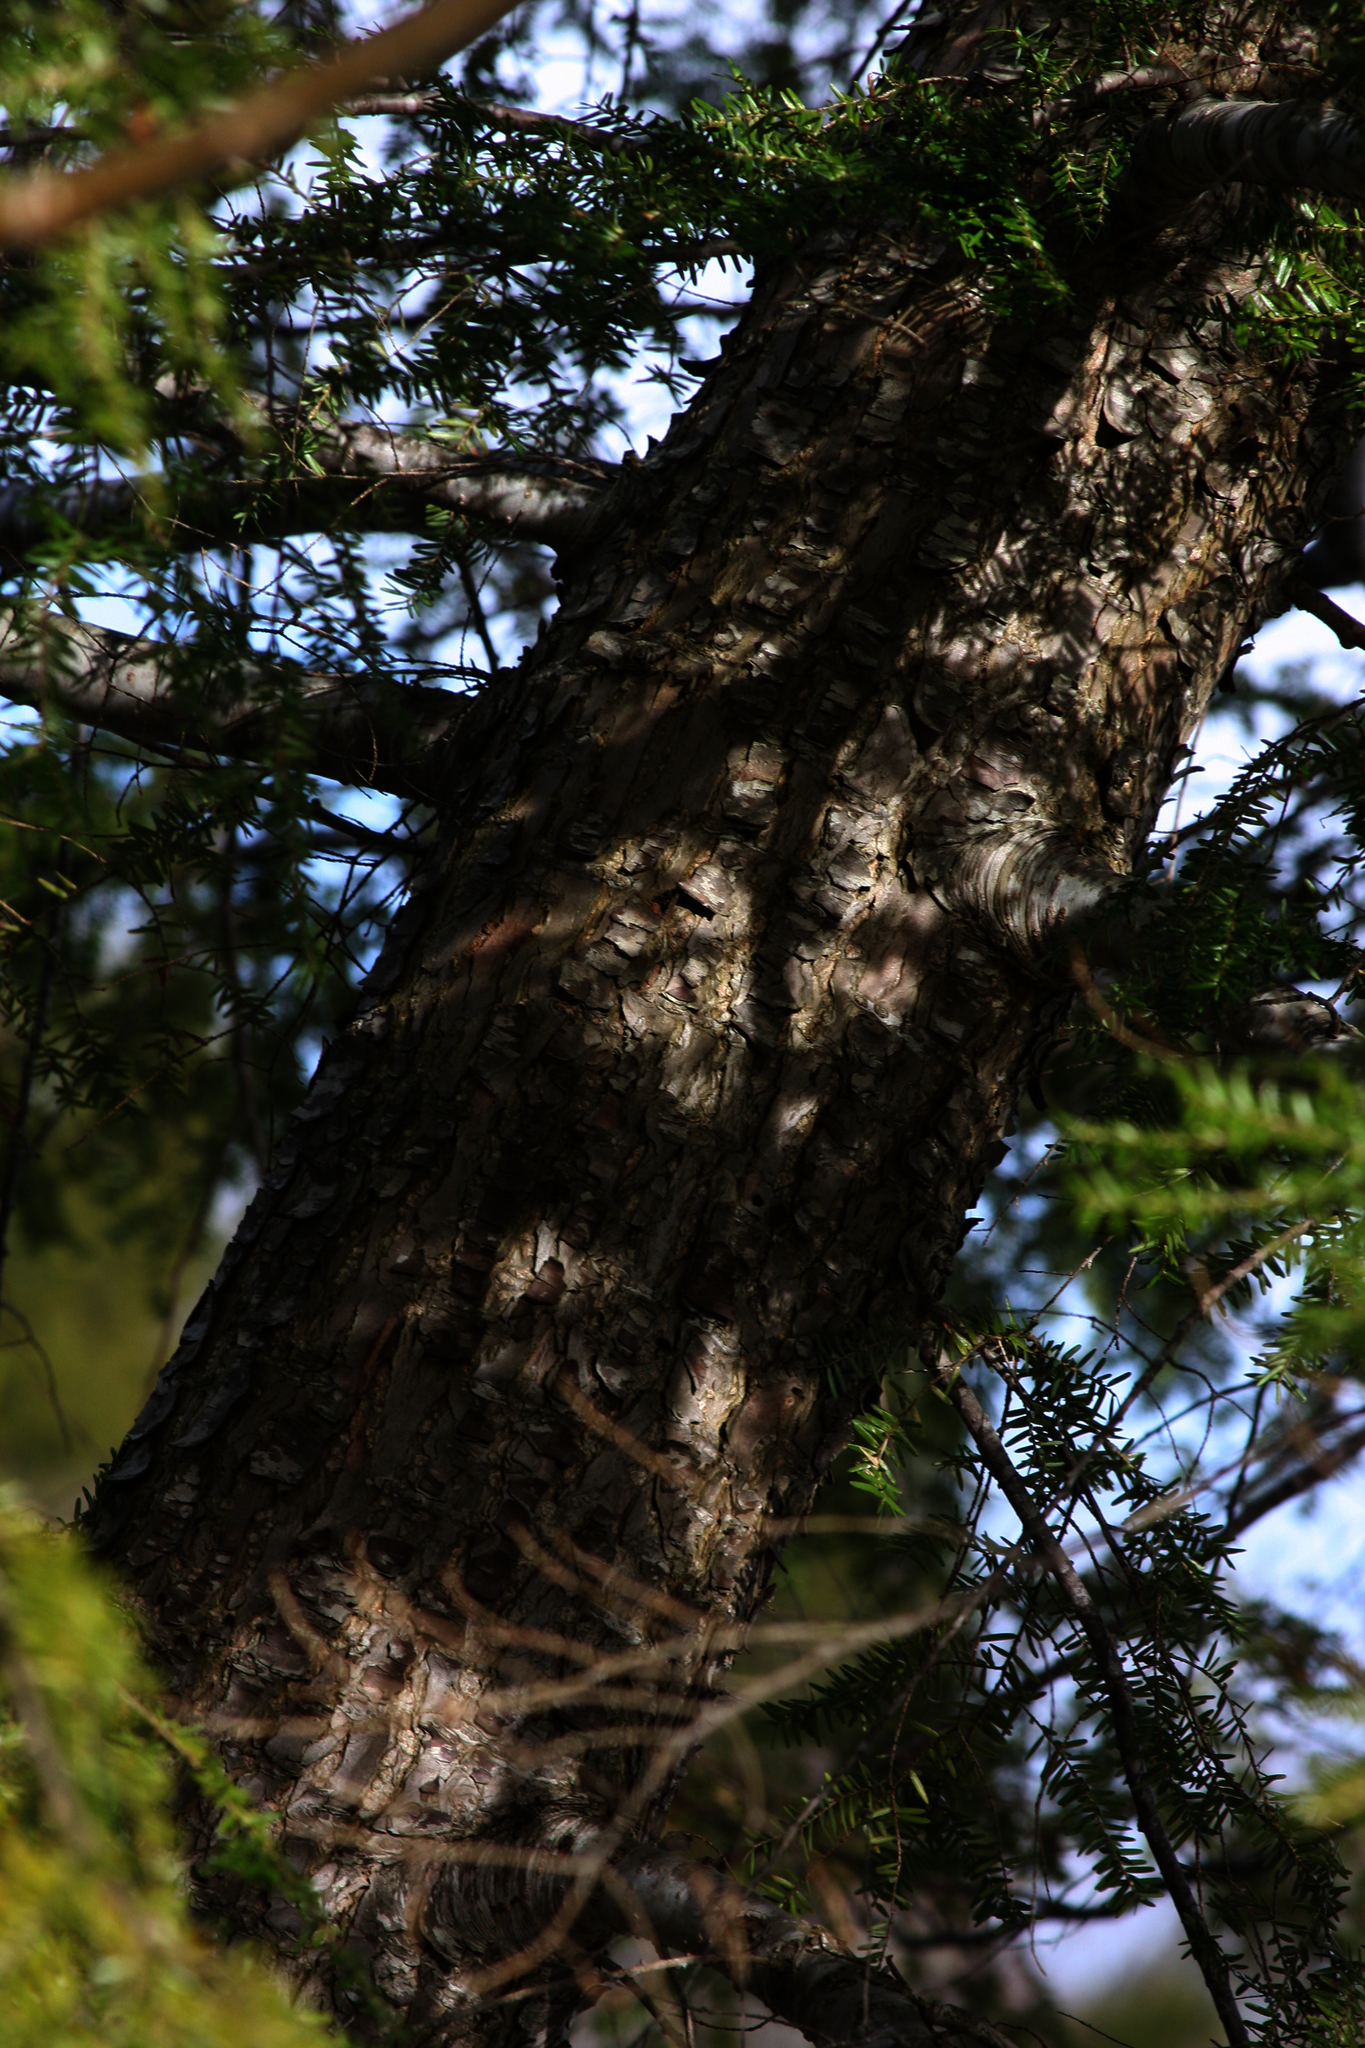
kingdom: Plantae
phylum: Tracheophyta
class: Pinopsida
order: Pinales
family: Pinaceae
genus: Tsuga
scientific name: Tsuga canadensis
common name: Eastern hemlock
